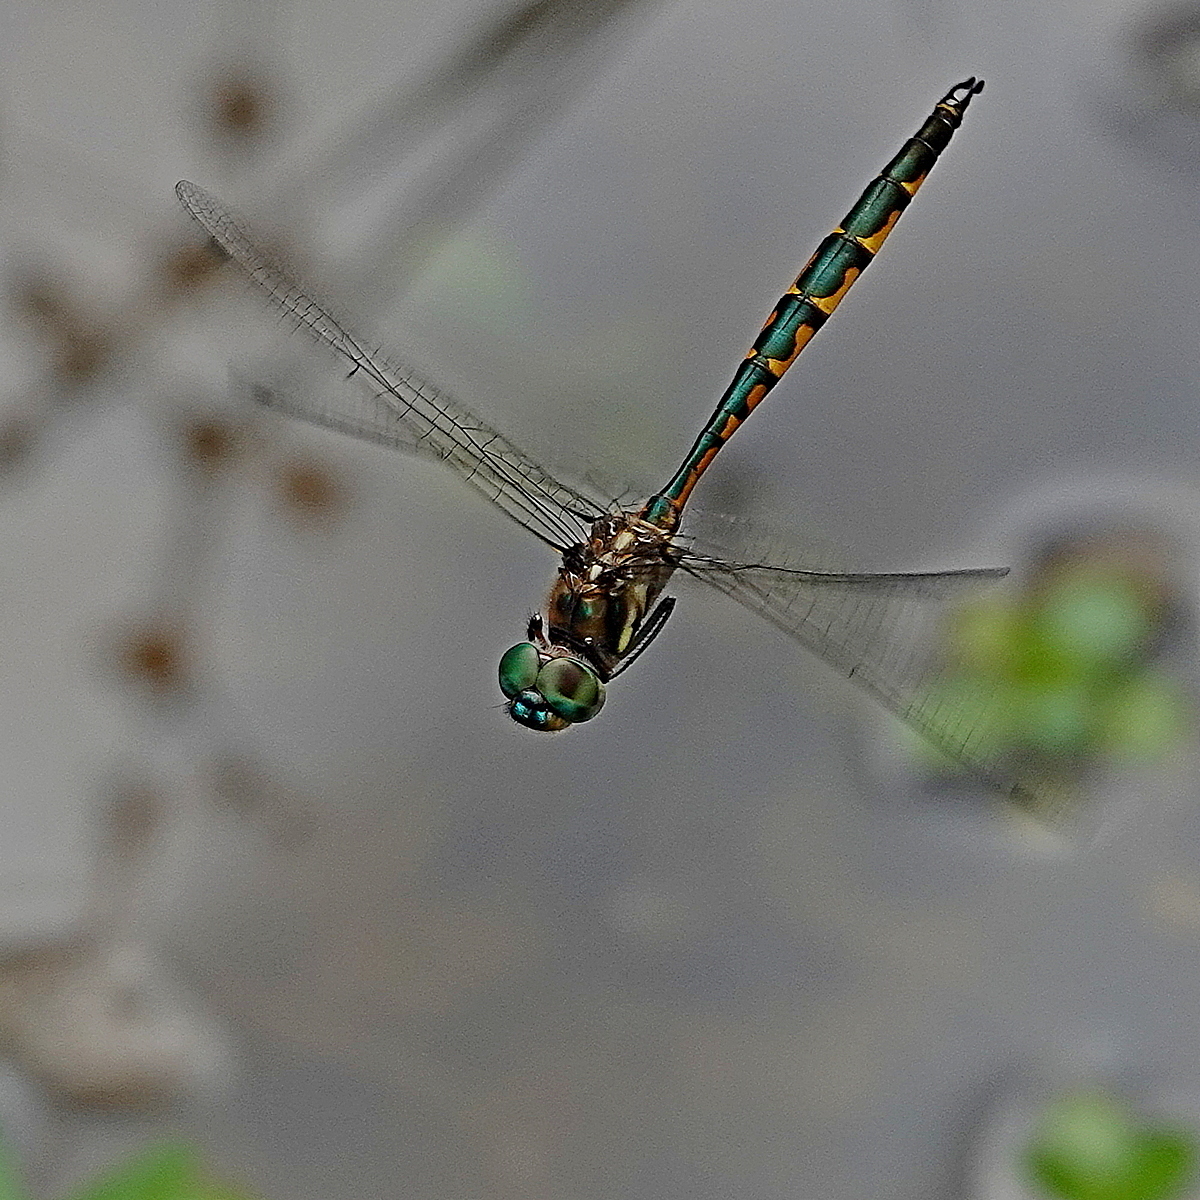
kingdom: Animalia
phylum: Arthropoda
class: Insecta
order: Odonata
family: Corduliidae
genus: Hemicordulia
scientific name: Hemicordulia australiae
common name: Sentry dragonfly
